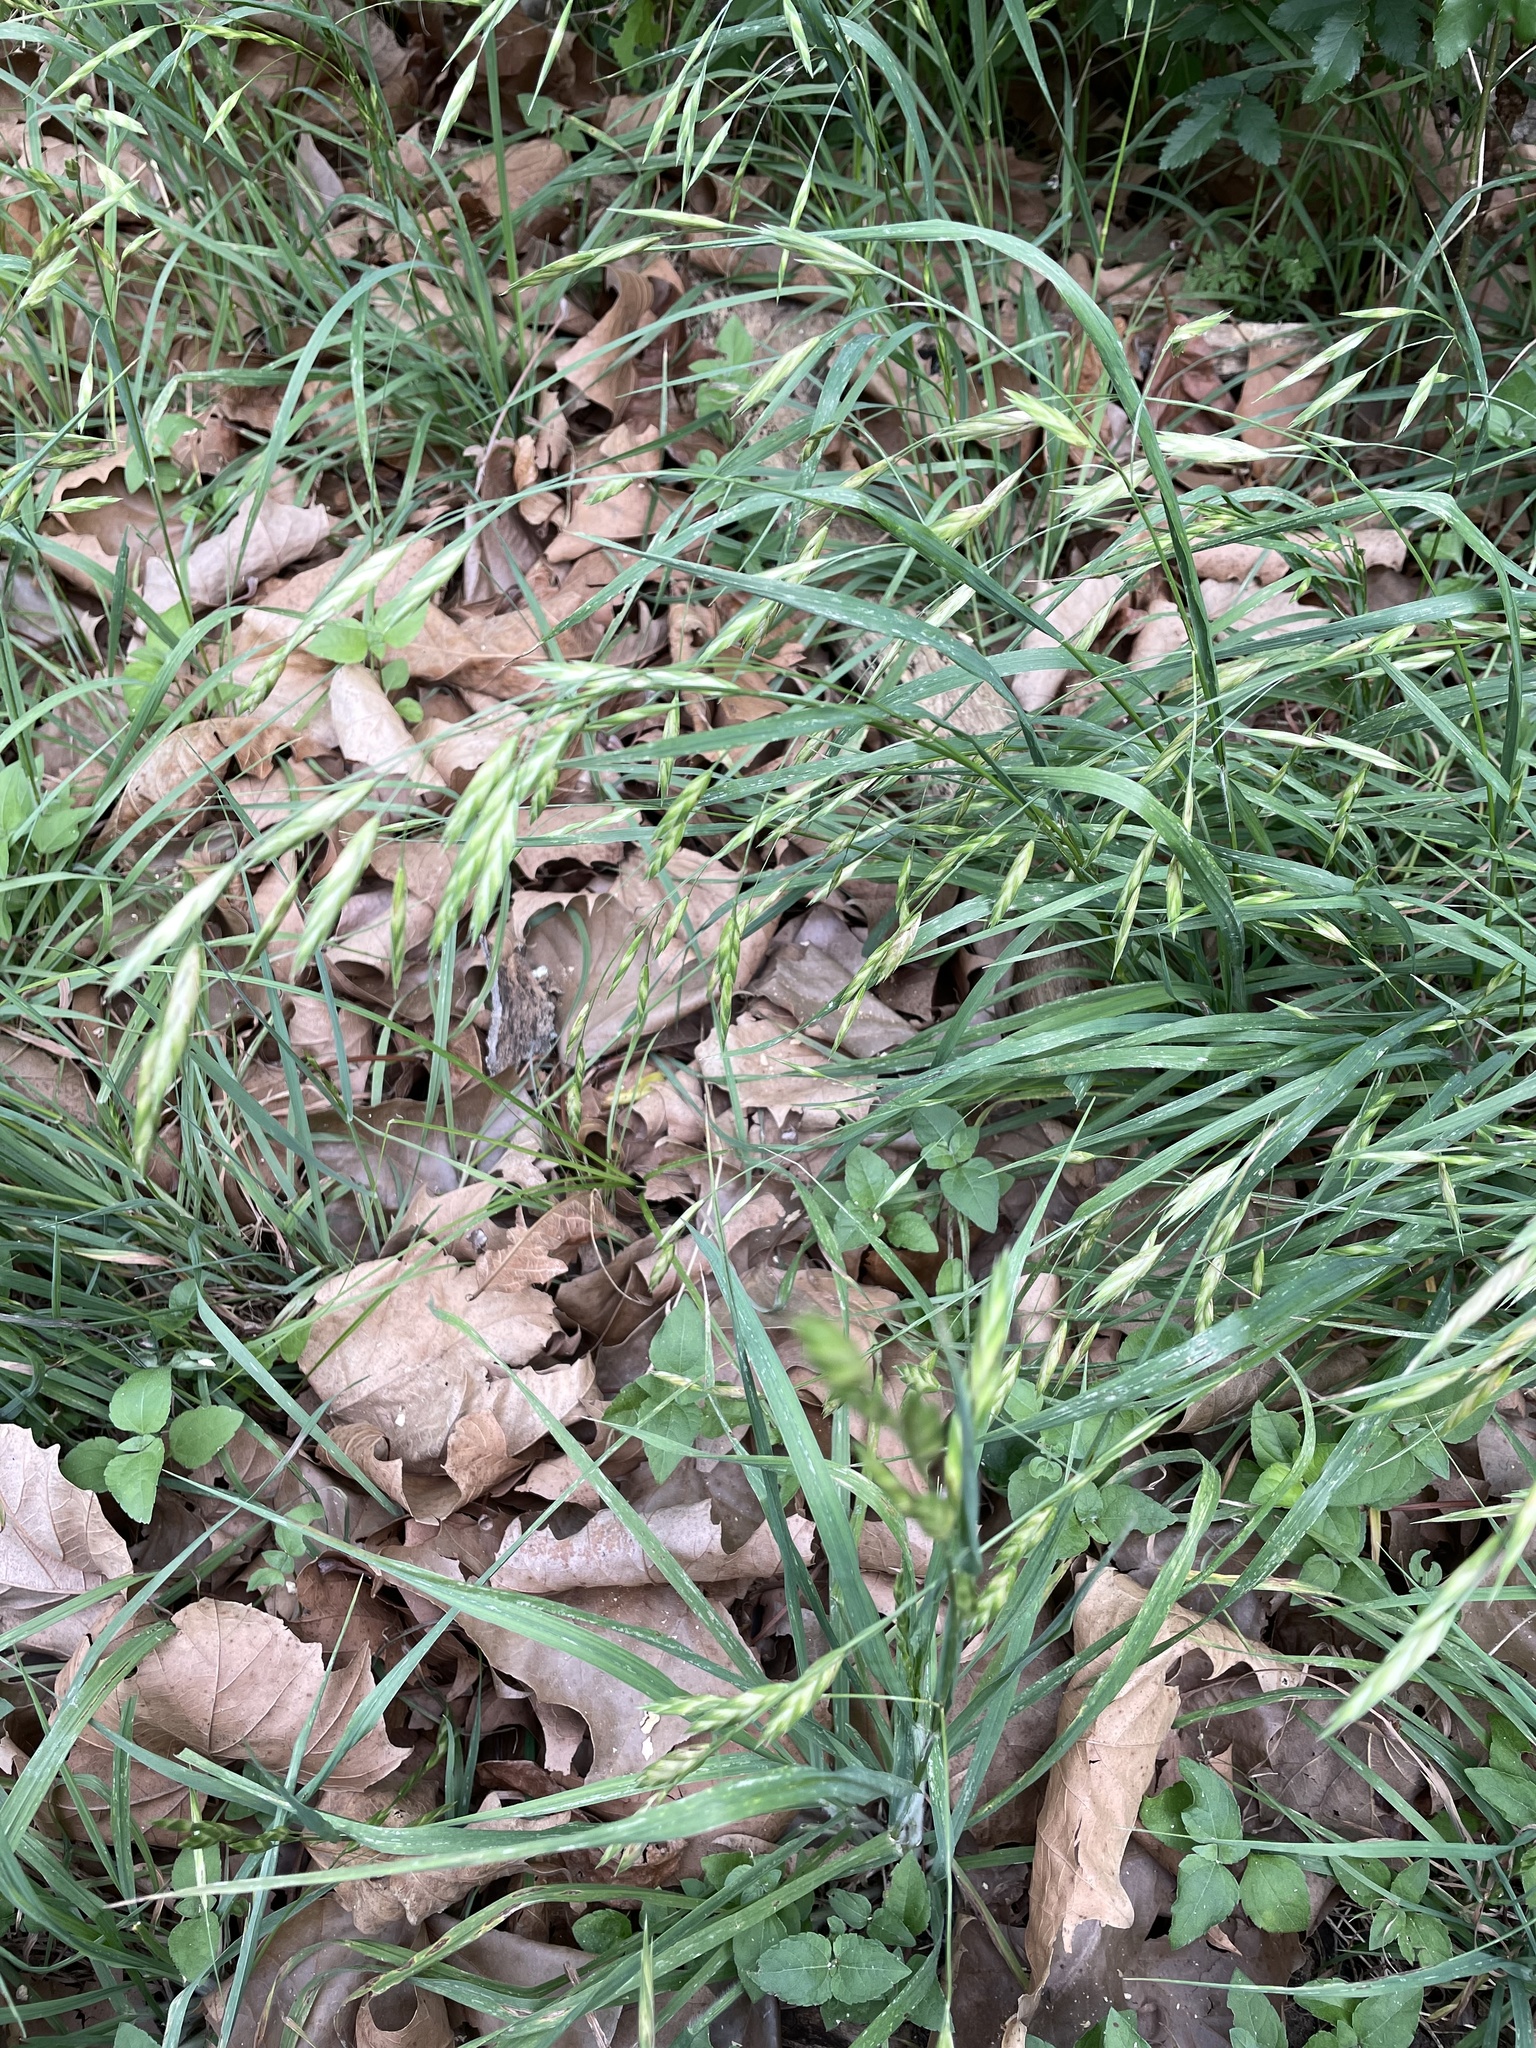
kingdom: Plantae
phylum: Tracheophyta
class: Liliopsida
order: Poales
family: Poaceae
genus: Bromus
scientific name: Bromus catharticus
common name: Rescuegrass
